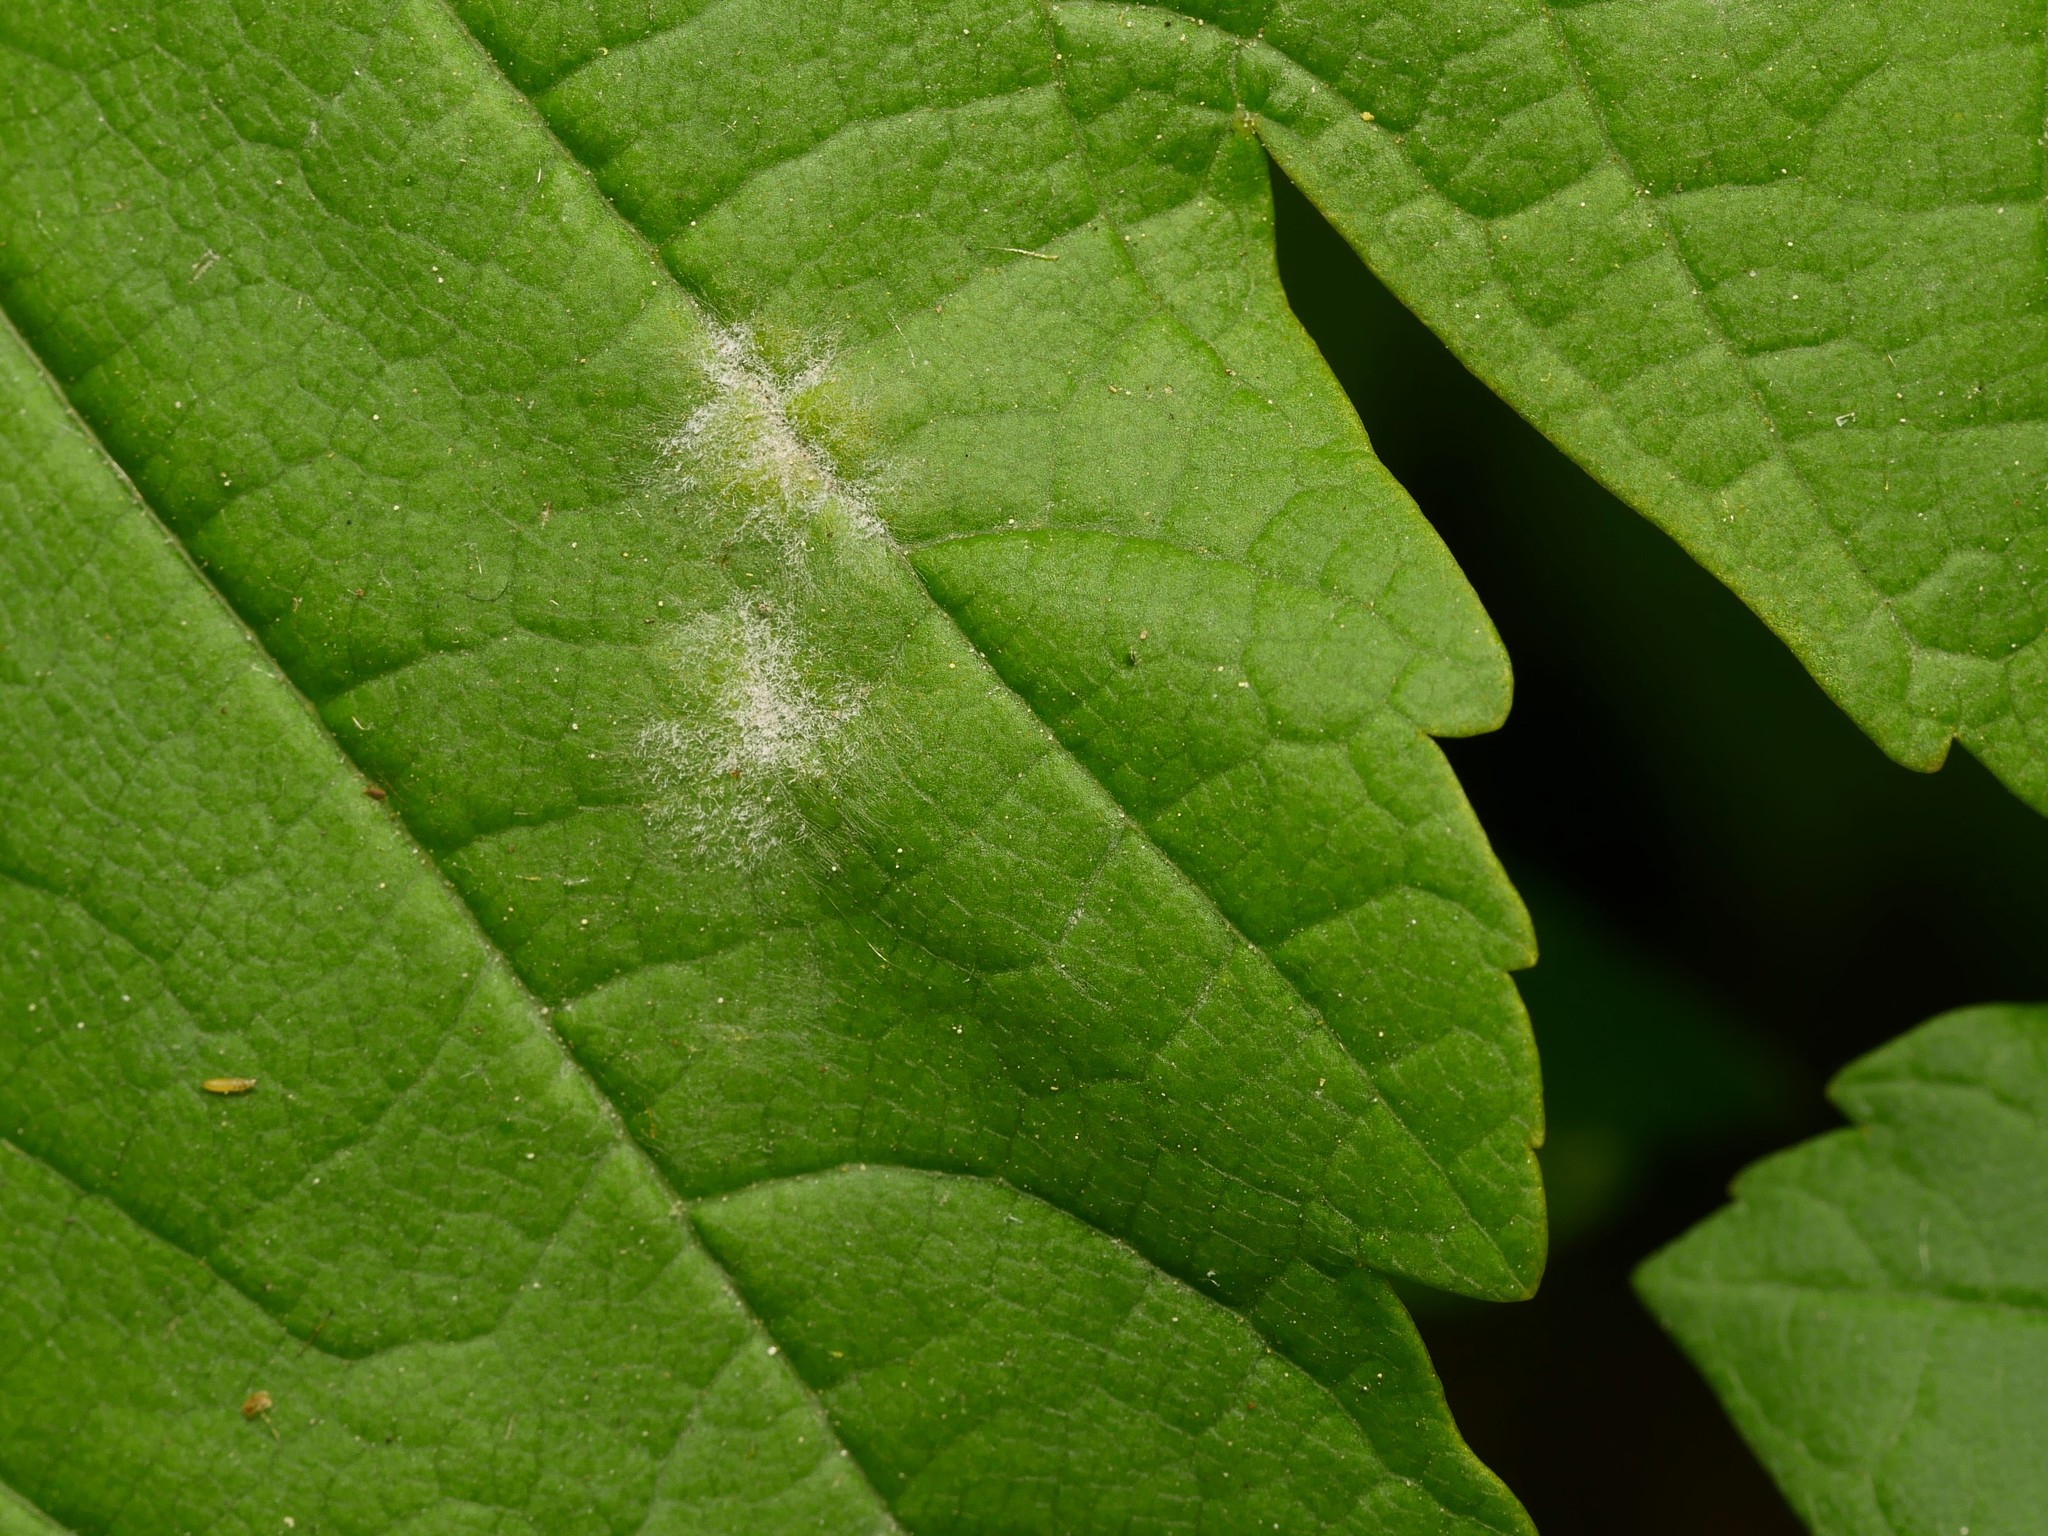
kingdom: Fungi
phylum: Ascomycota
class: Leotiomycetes
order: Helotiales
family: Erysiphaceae
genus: Sawadaea
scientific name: Sawadaea bicornis
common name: Maple mildew
